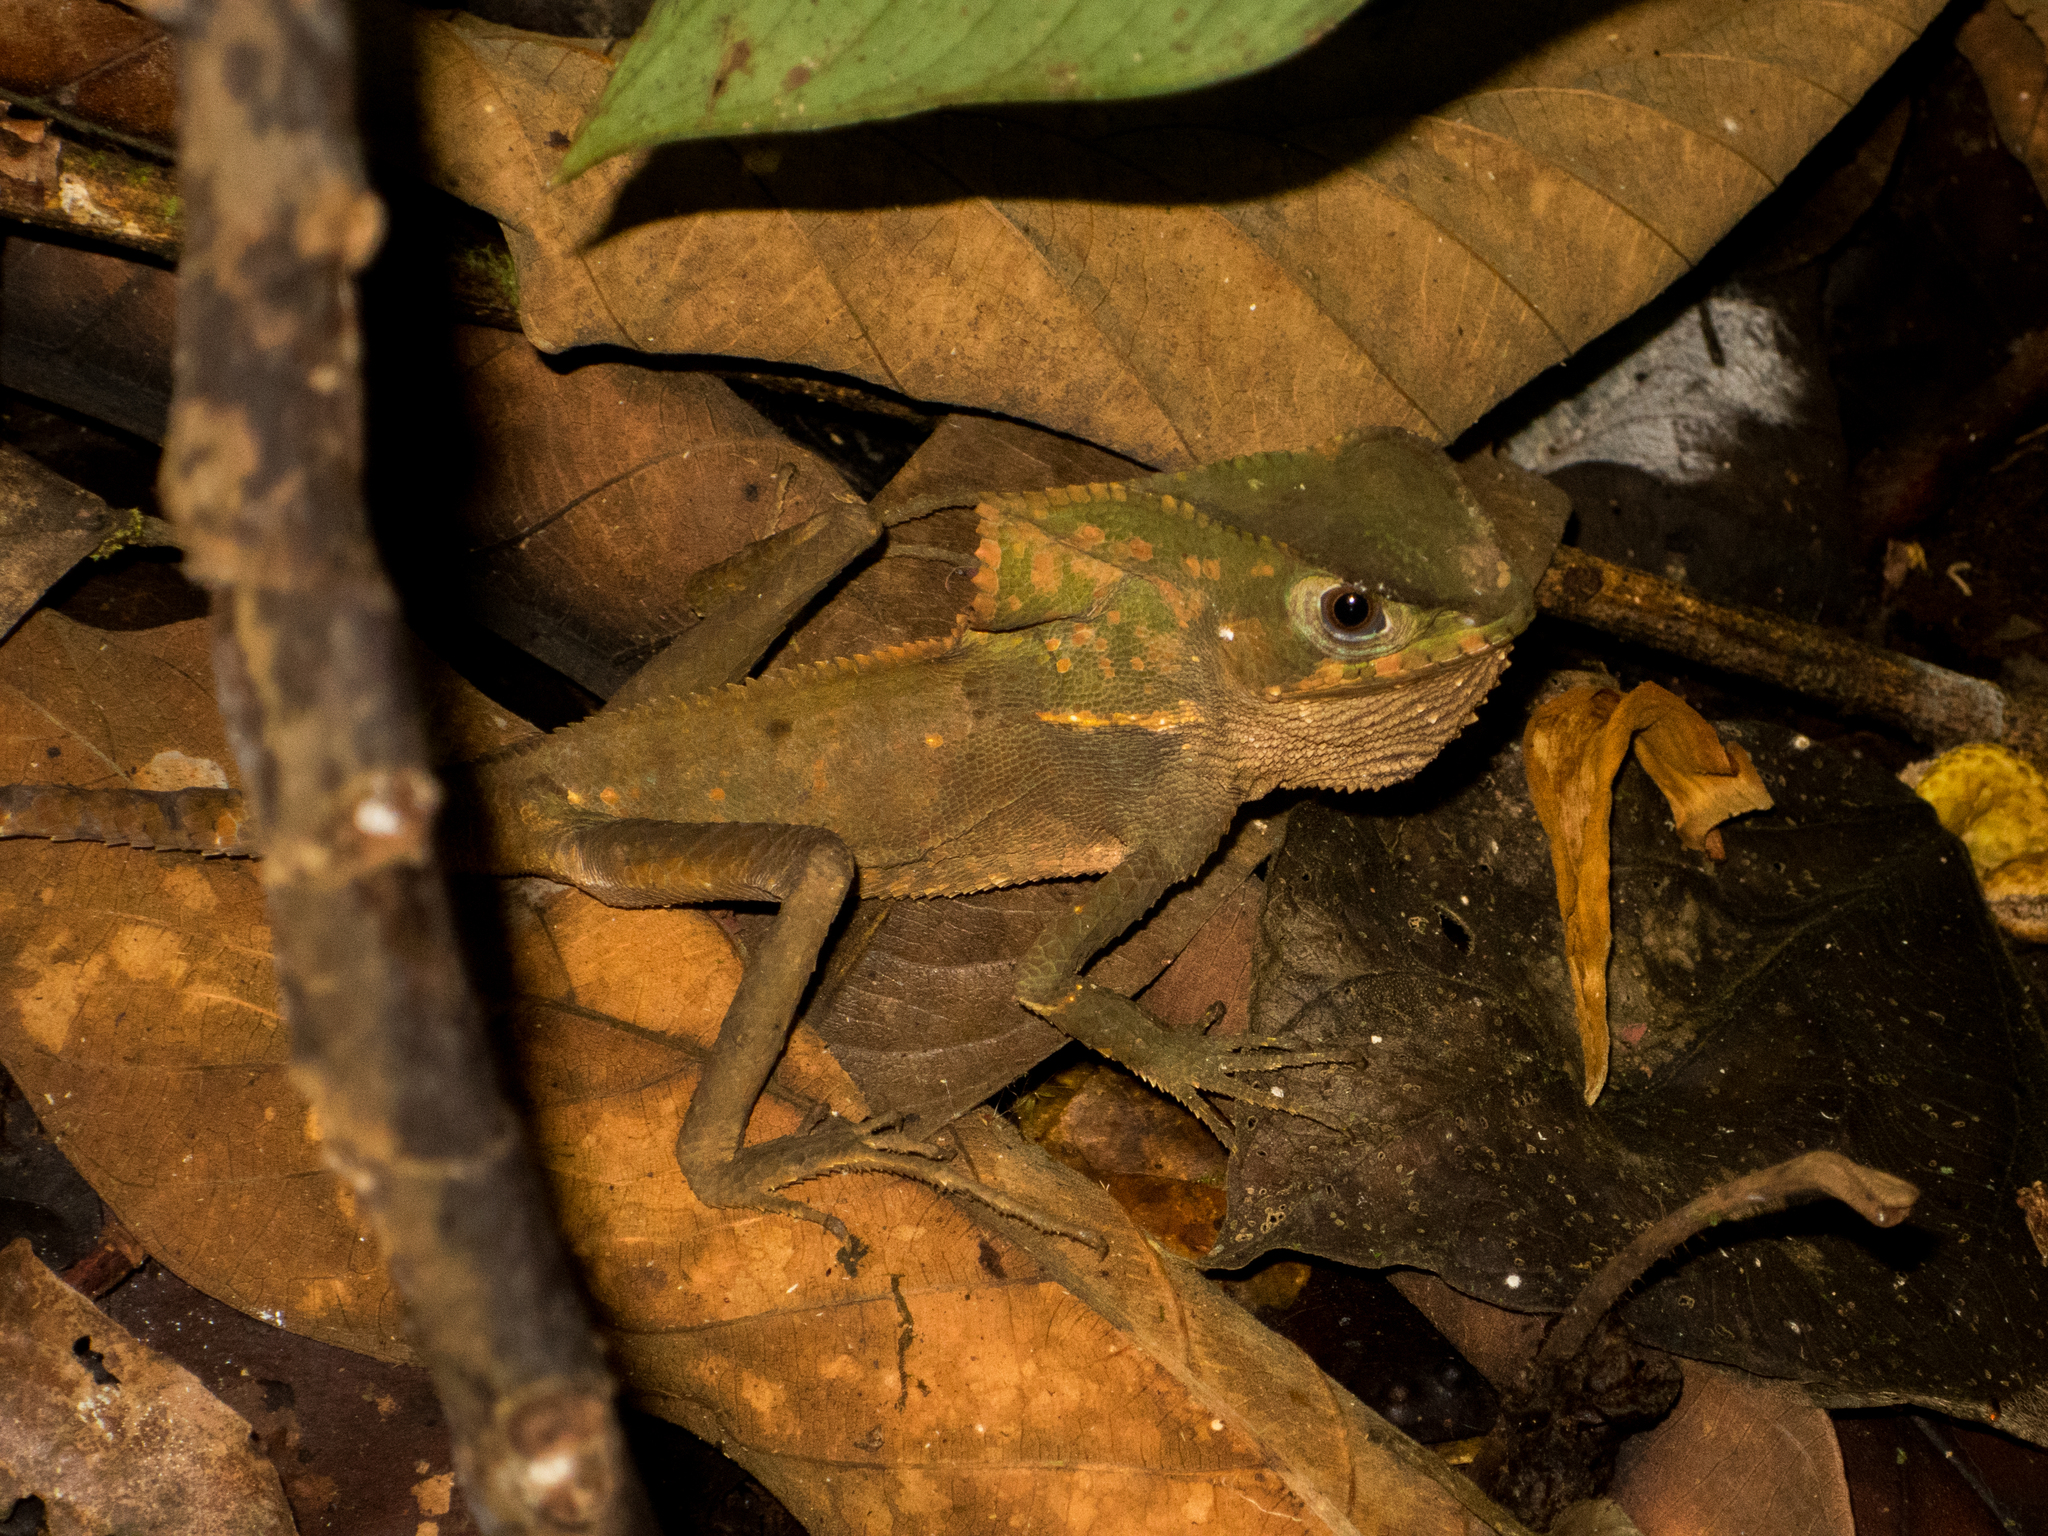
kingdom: Animalia
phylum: Chordata
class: Squamata
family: Corytophanidae
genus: Corytophanes
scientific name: Corytophanes cristatus
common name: Smooth helmeted iguana
